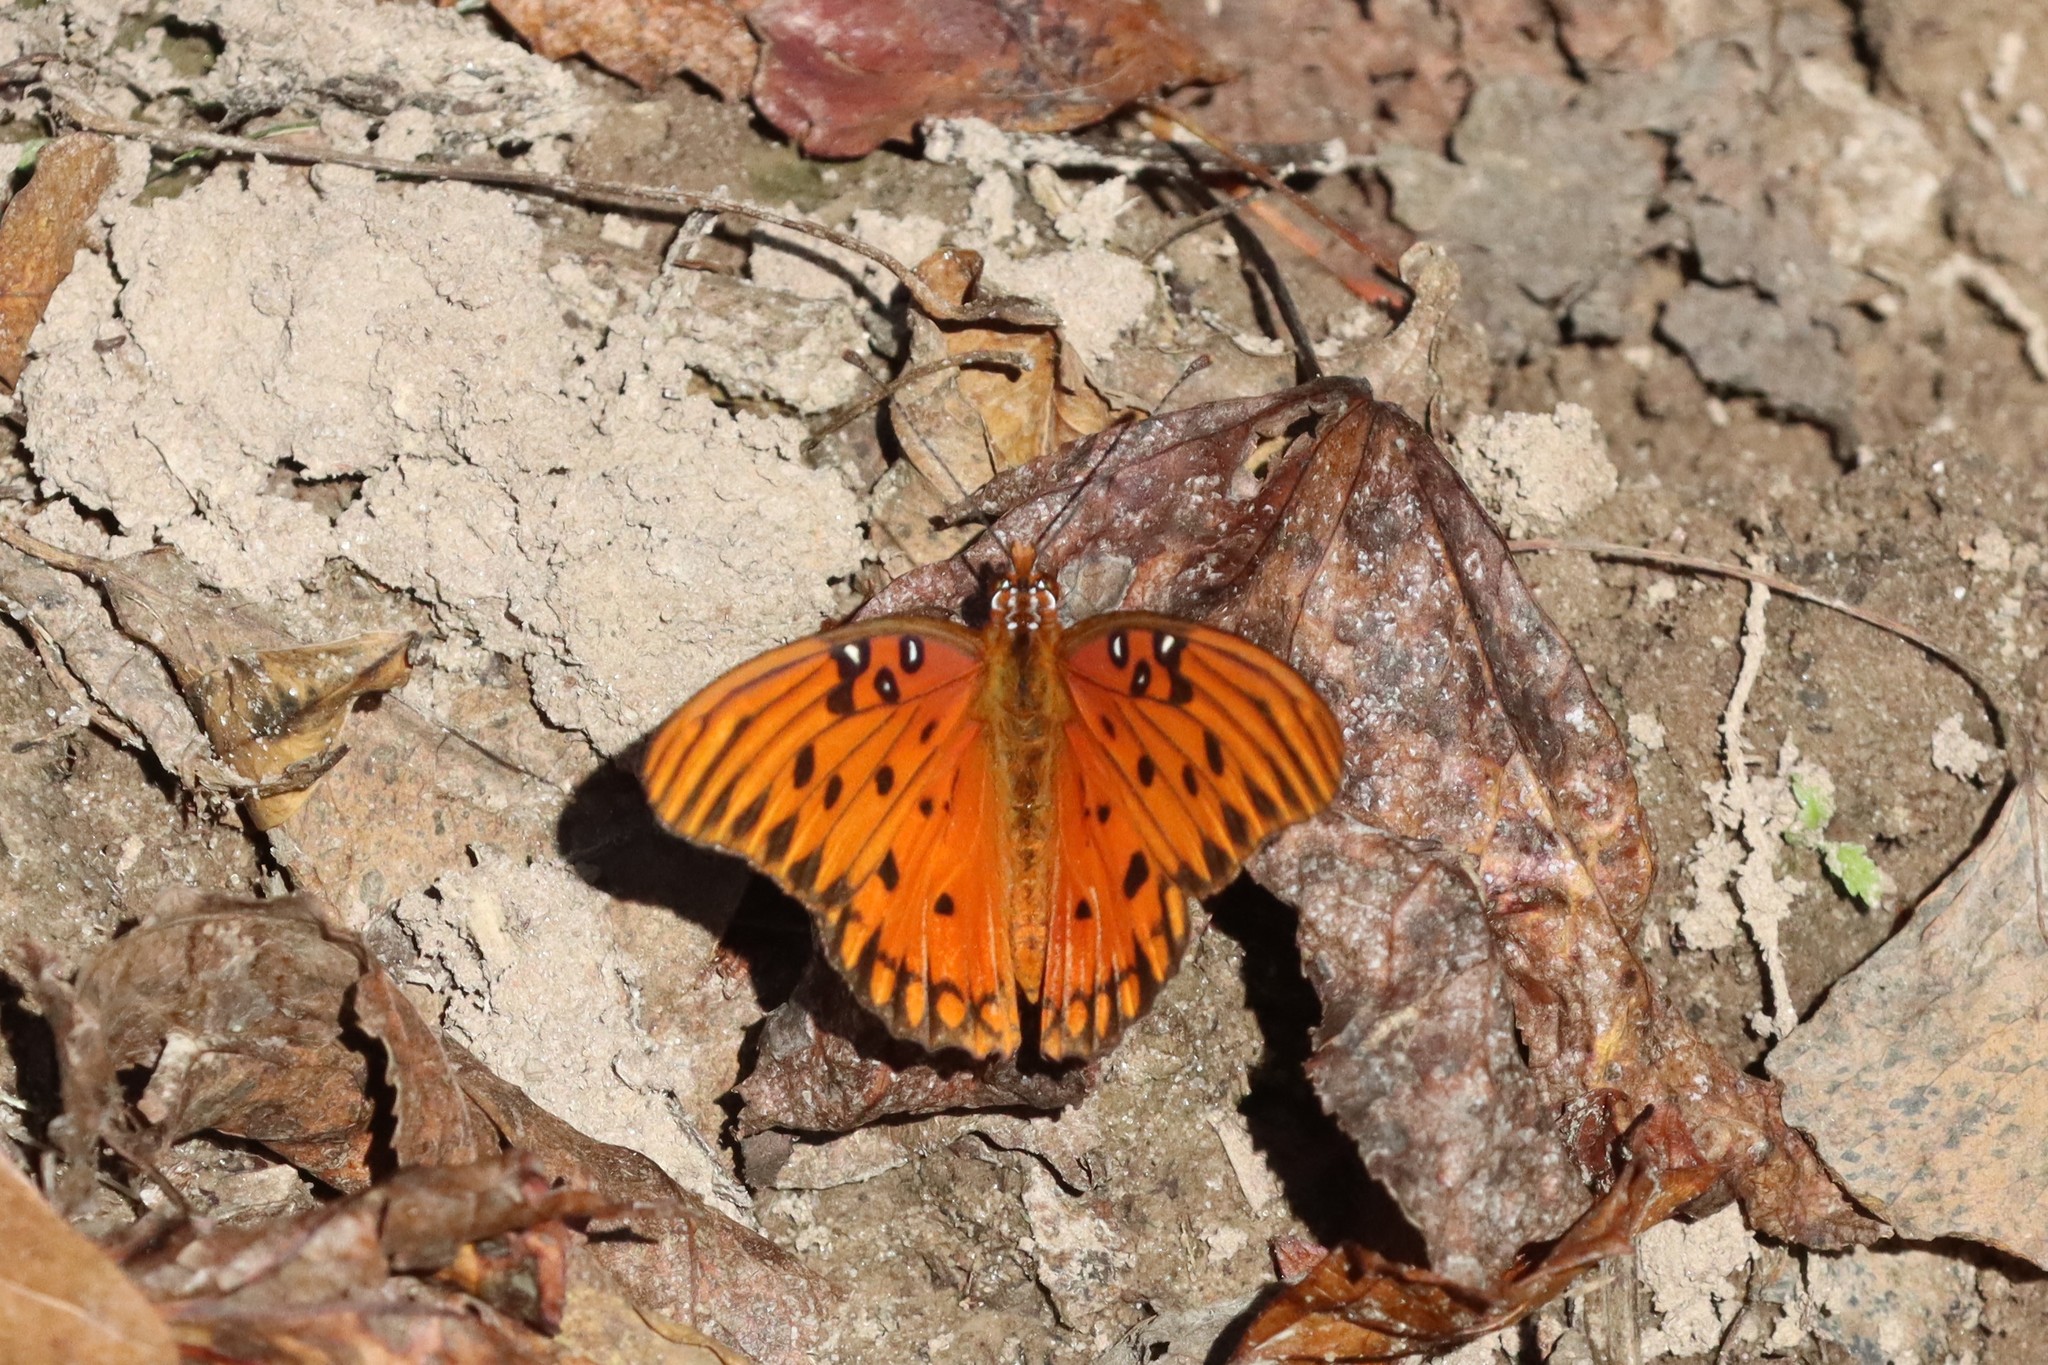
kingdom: Animalia
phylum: Arthropoda
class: Insecta
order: Lepidoptera
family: Nymphalidae
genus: Dione
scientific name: Dione vanillae
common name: Gulf fritillary
